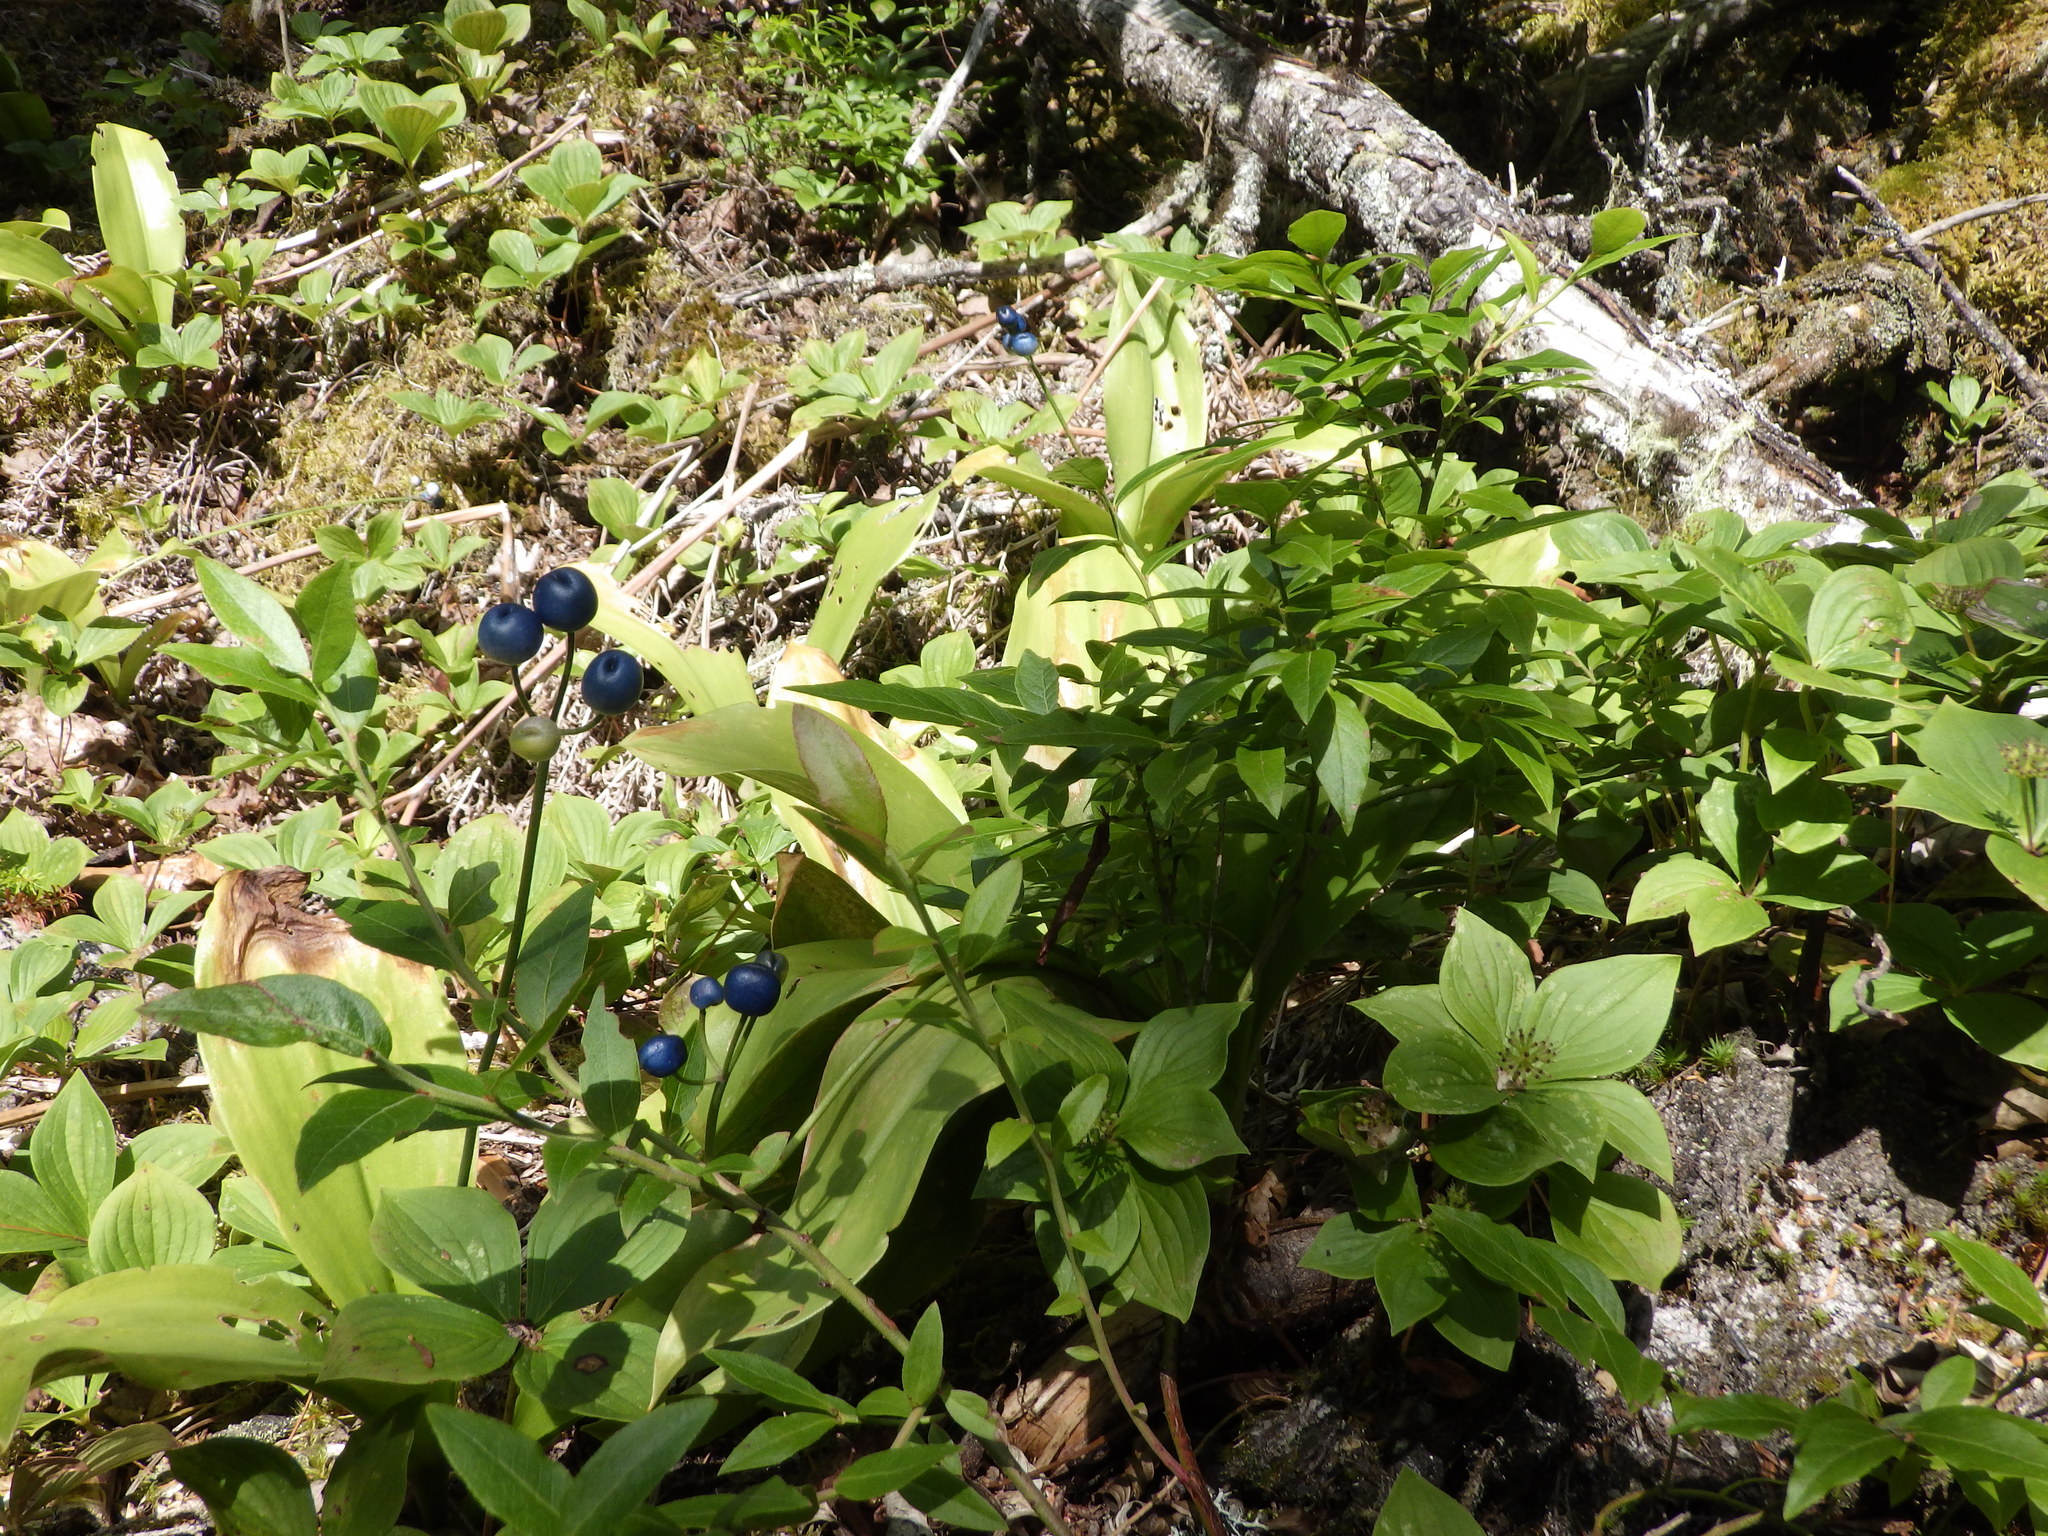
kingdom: Plantae
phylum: Tracheophyta
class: Liliopsida
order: Liliales
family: Liliaceae
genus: Clintonia
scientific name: Clintonia borealis
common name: Yellow clintonia
